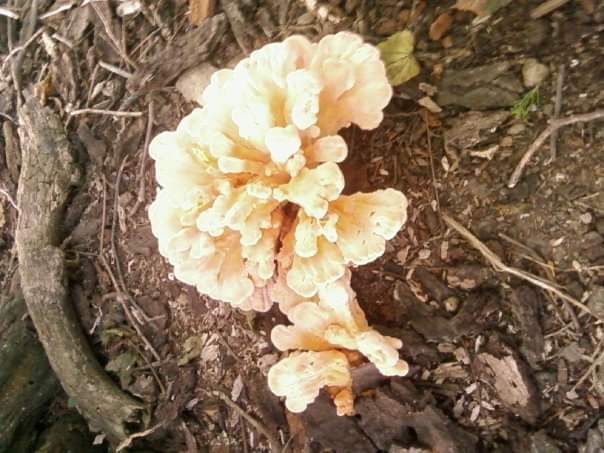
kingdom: Fungi
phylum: Basidiomycota
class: Agaricomycetes
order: Polyporales
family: Laetiporaceae
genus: Laetiporus
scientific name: Laetiporus sulphureus
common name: Chicken of the woods
